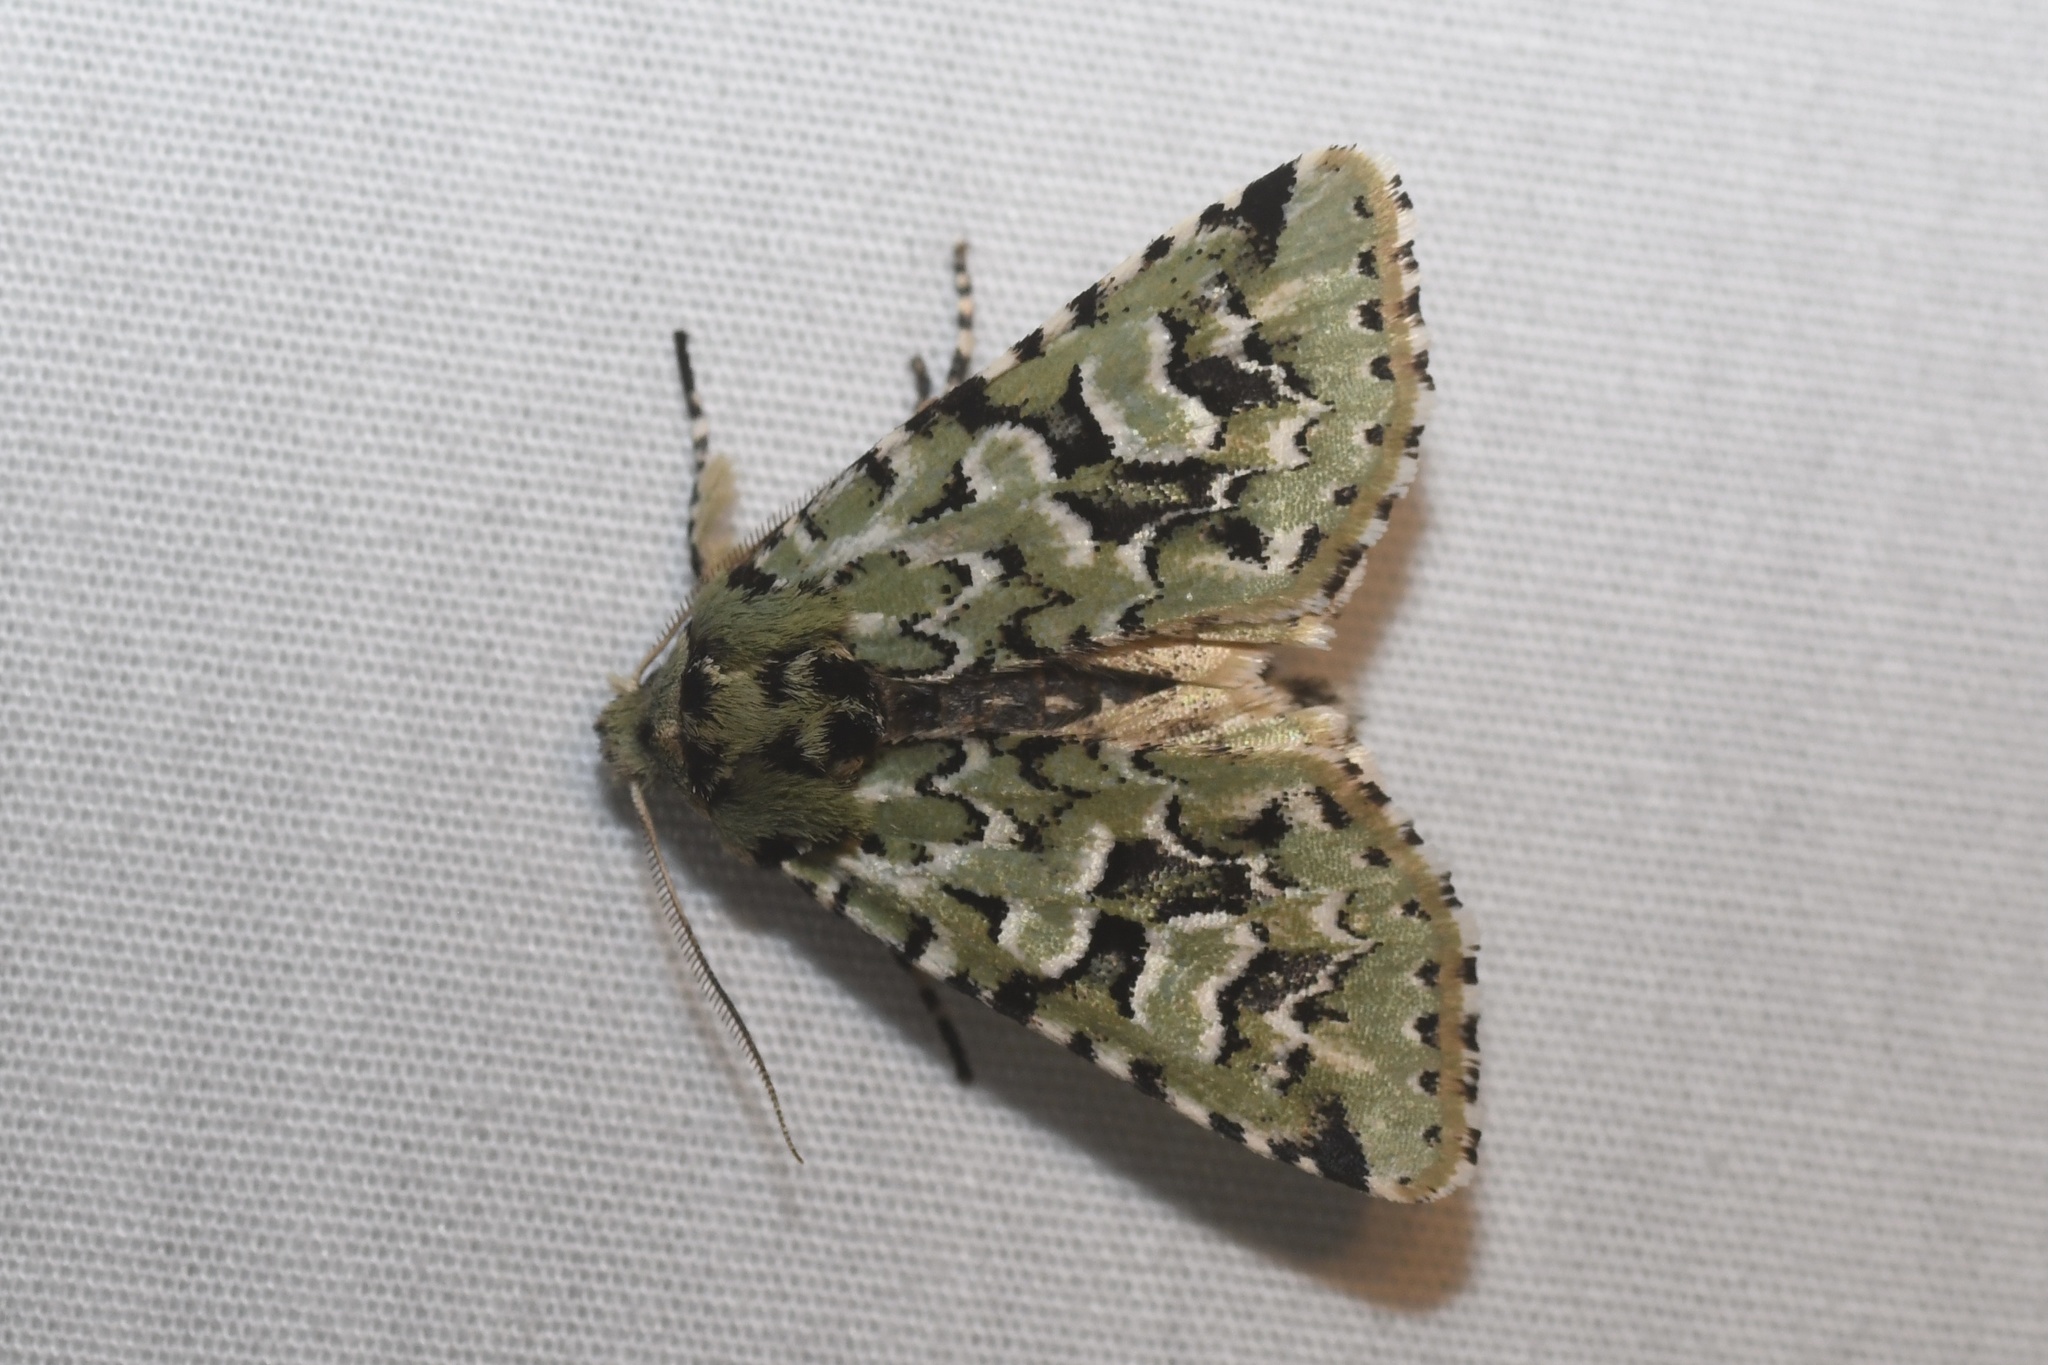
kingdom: Animalia
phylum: Arthropoda
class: Insecta
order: Lepidoptera
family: Noctuidae
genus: Feralia
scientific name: Feralia comstocki
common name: Comstock's sallow
